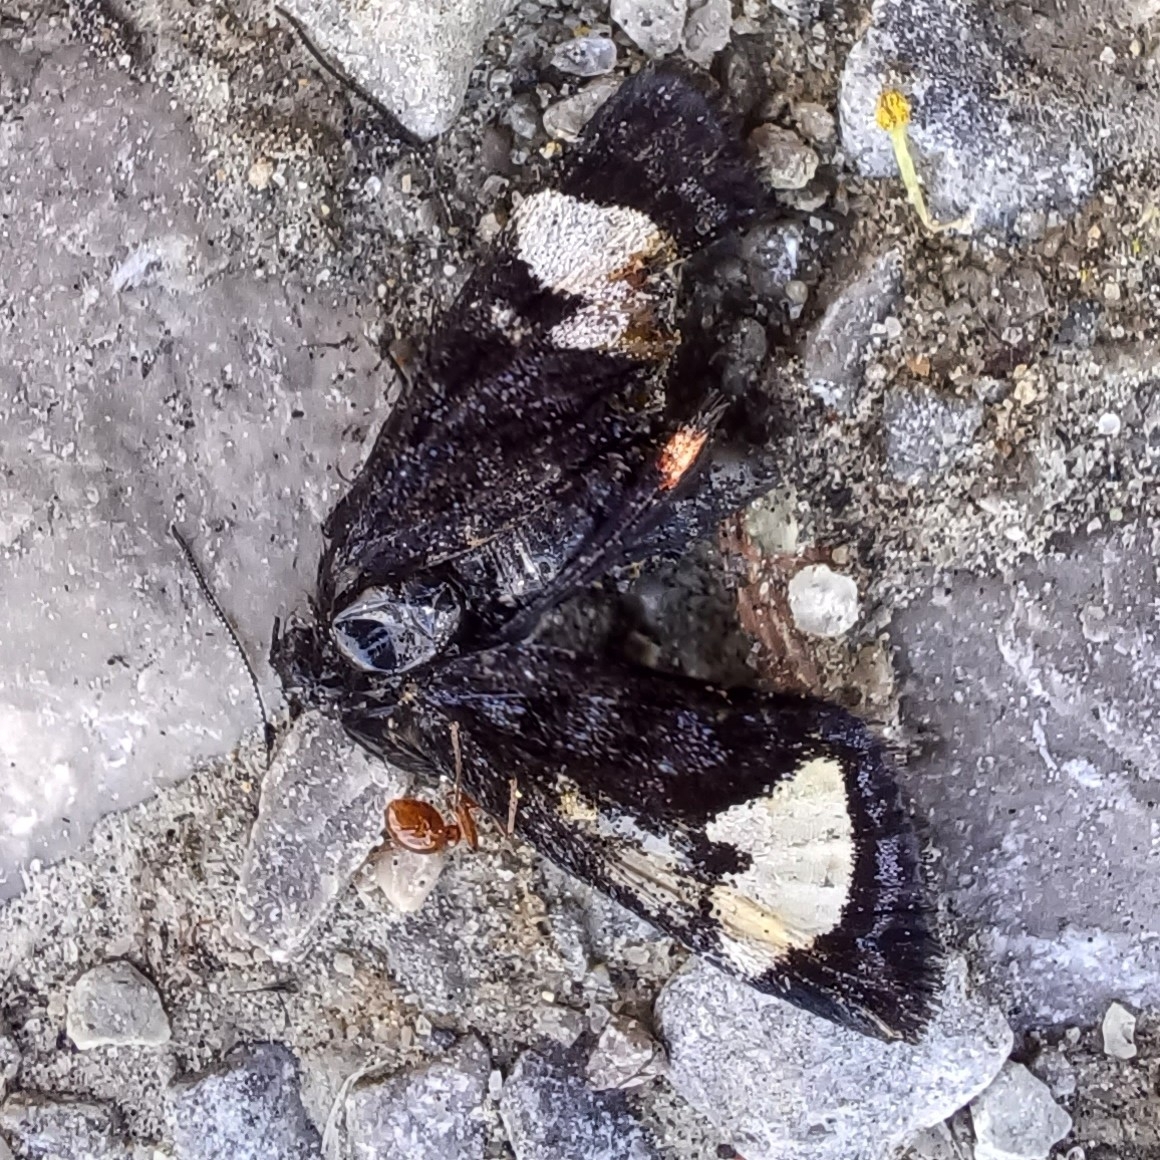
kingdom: Animalia
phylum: Arthropoda
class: Insecta
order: Lepidoptera
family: Noctuidae
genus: Psychomorpha
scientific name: Psychomorpha epimenis
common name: Grapevine epimenis moth
